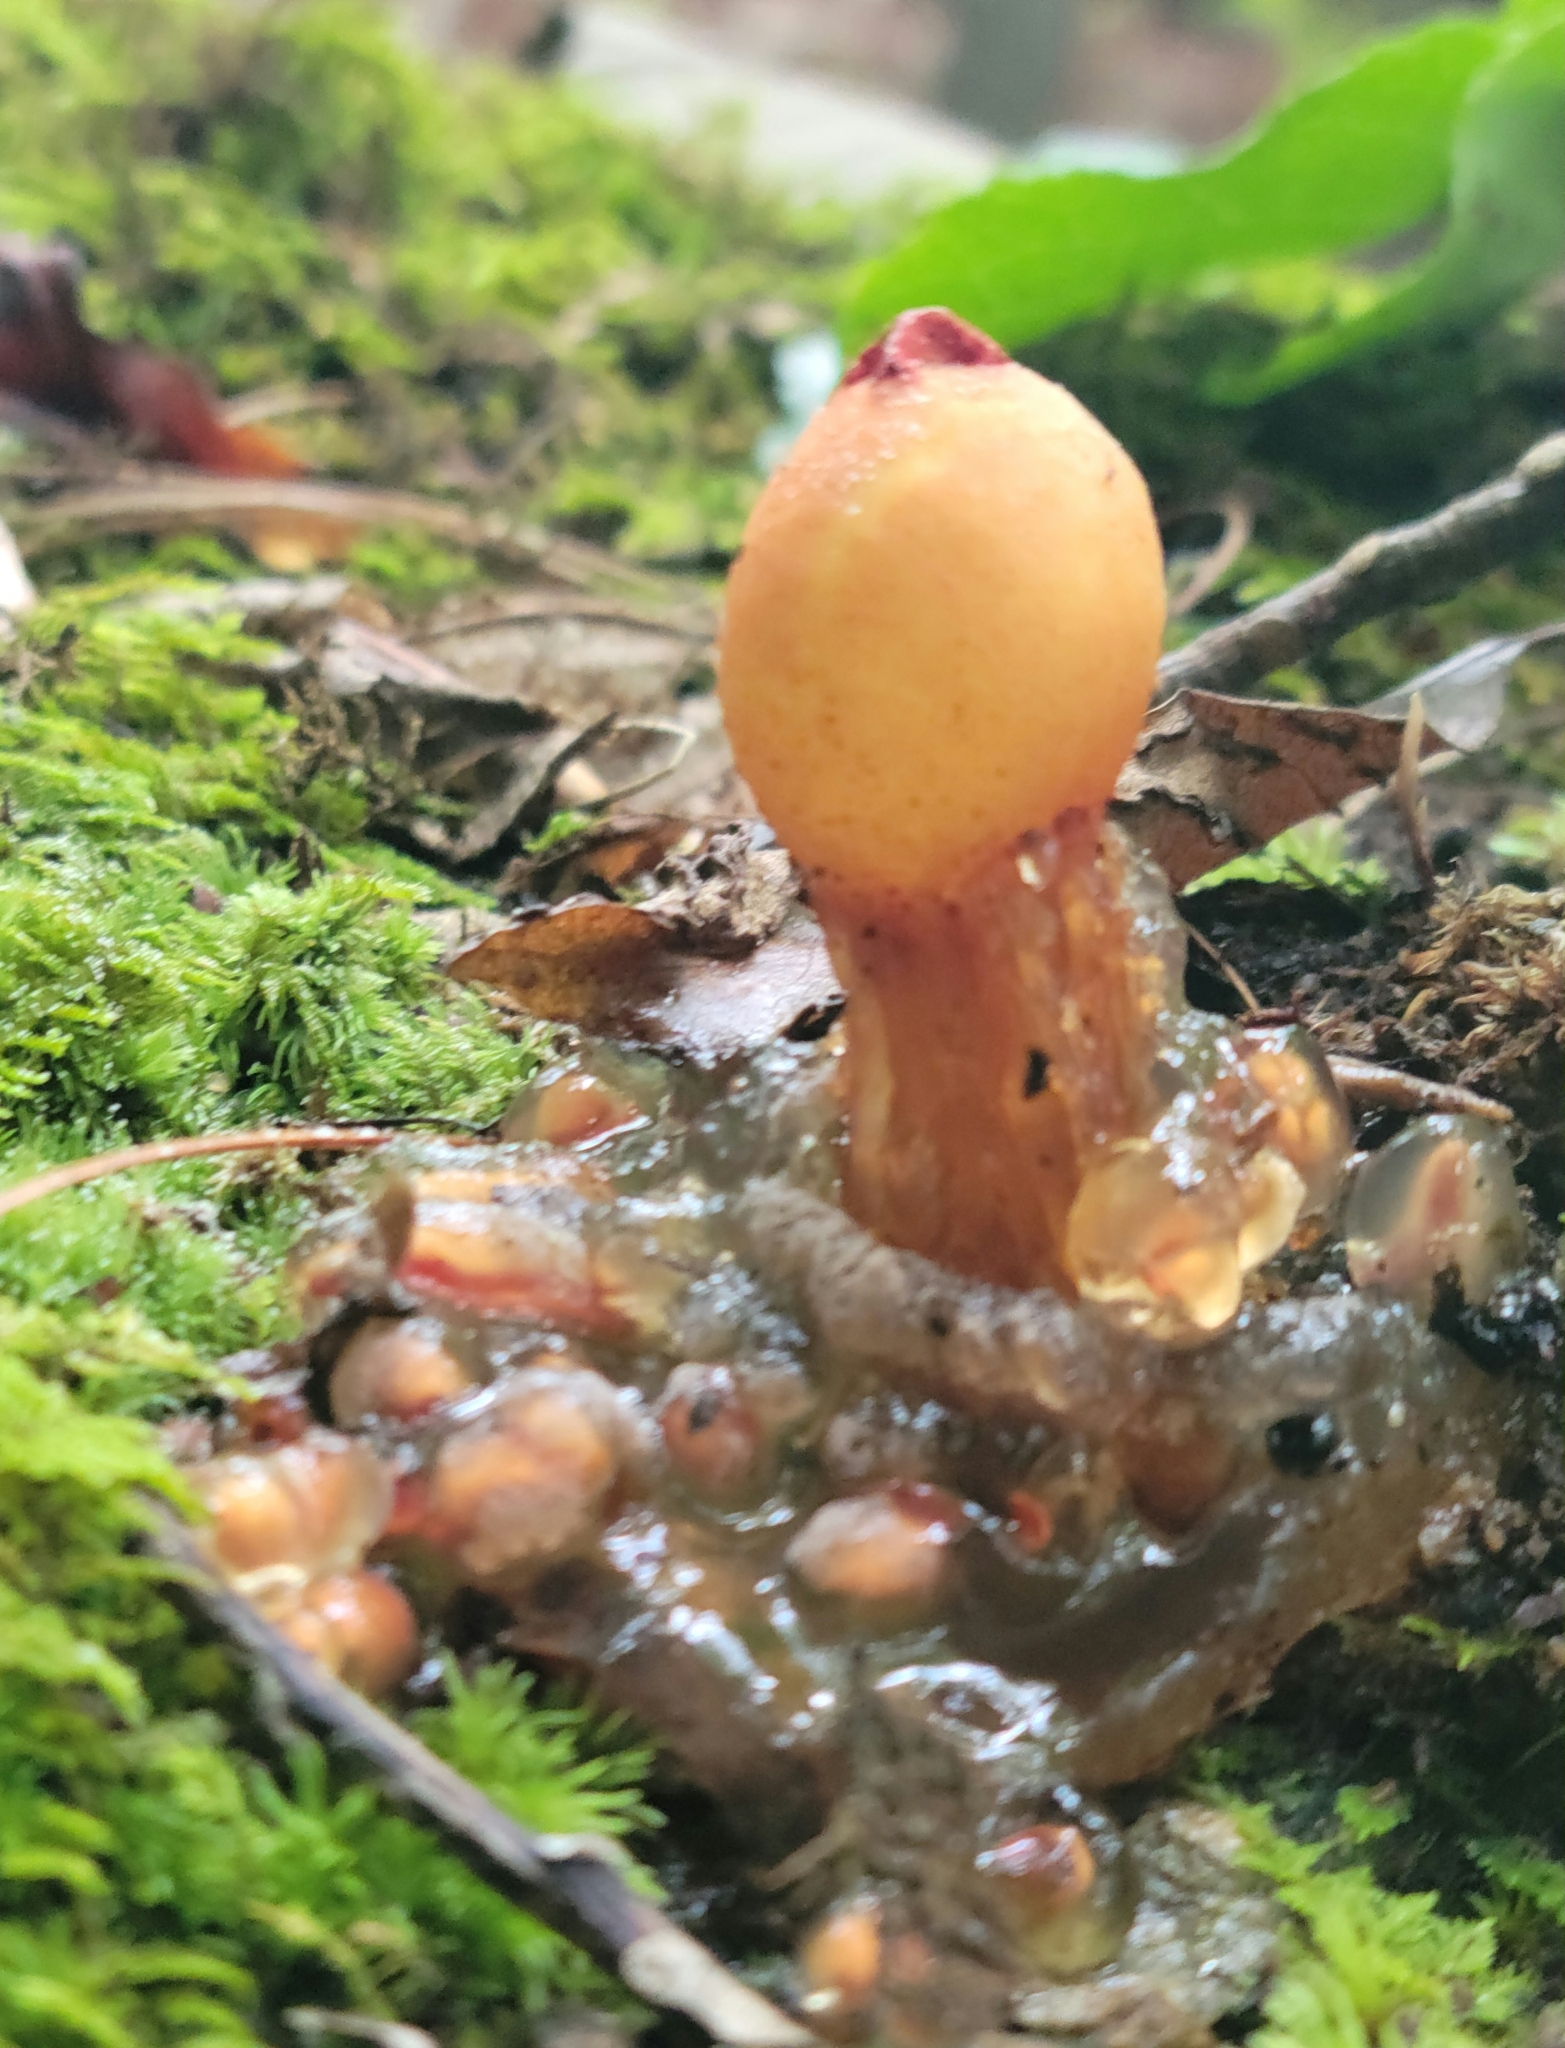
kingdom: Fungi
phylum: Basidiomycota
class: Agaricomycetes
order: Boletales
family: Calostomataceae
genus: Calostoma
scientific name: Calostoma cinnabarinum
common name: Stalked puffball-in-aspic
